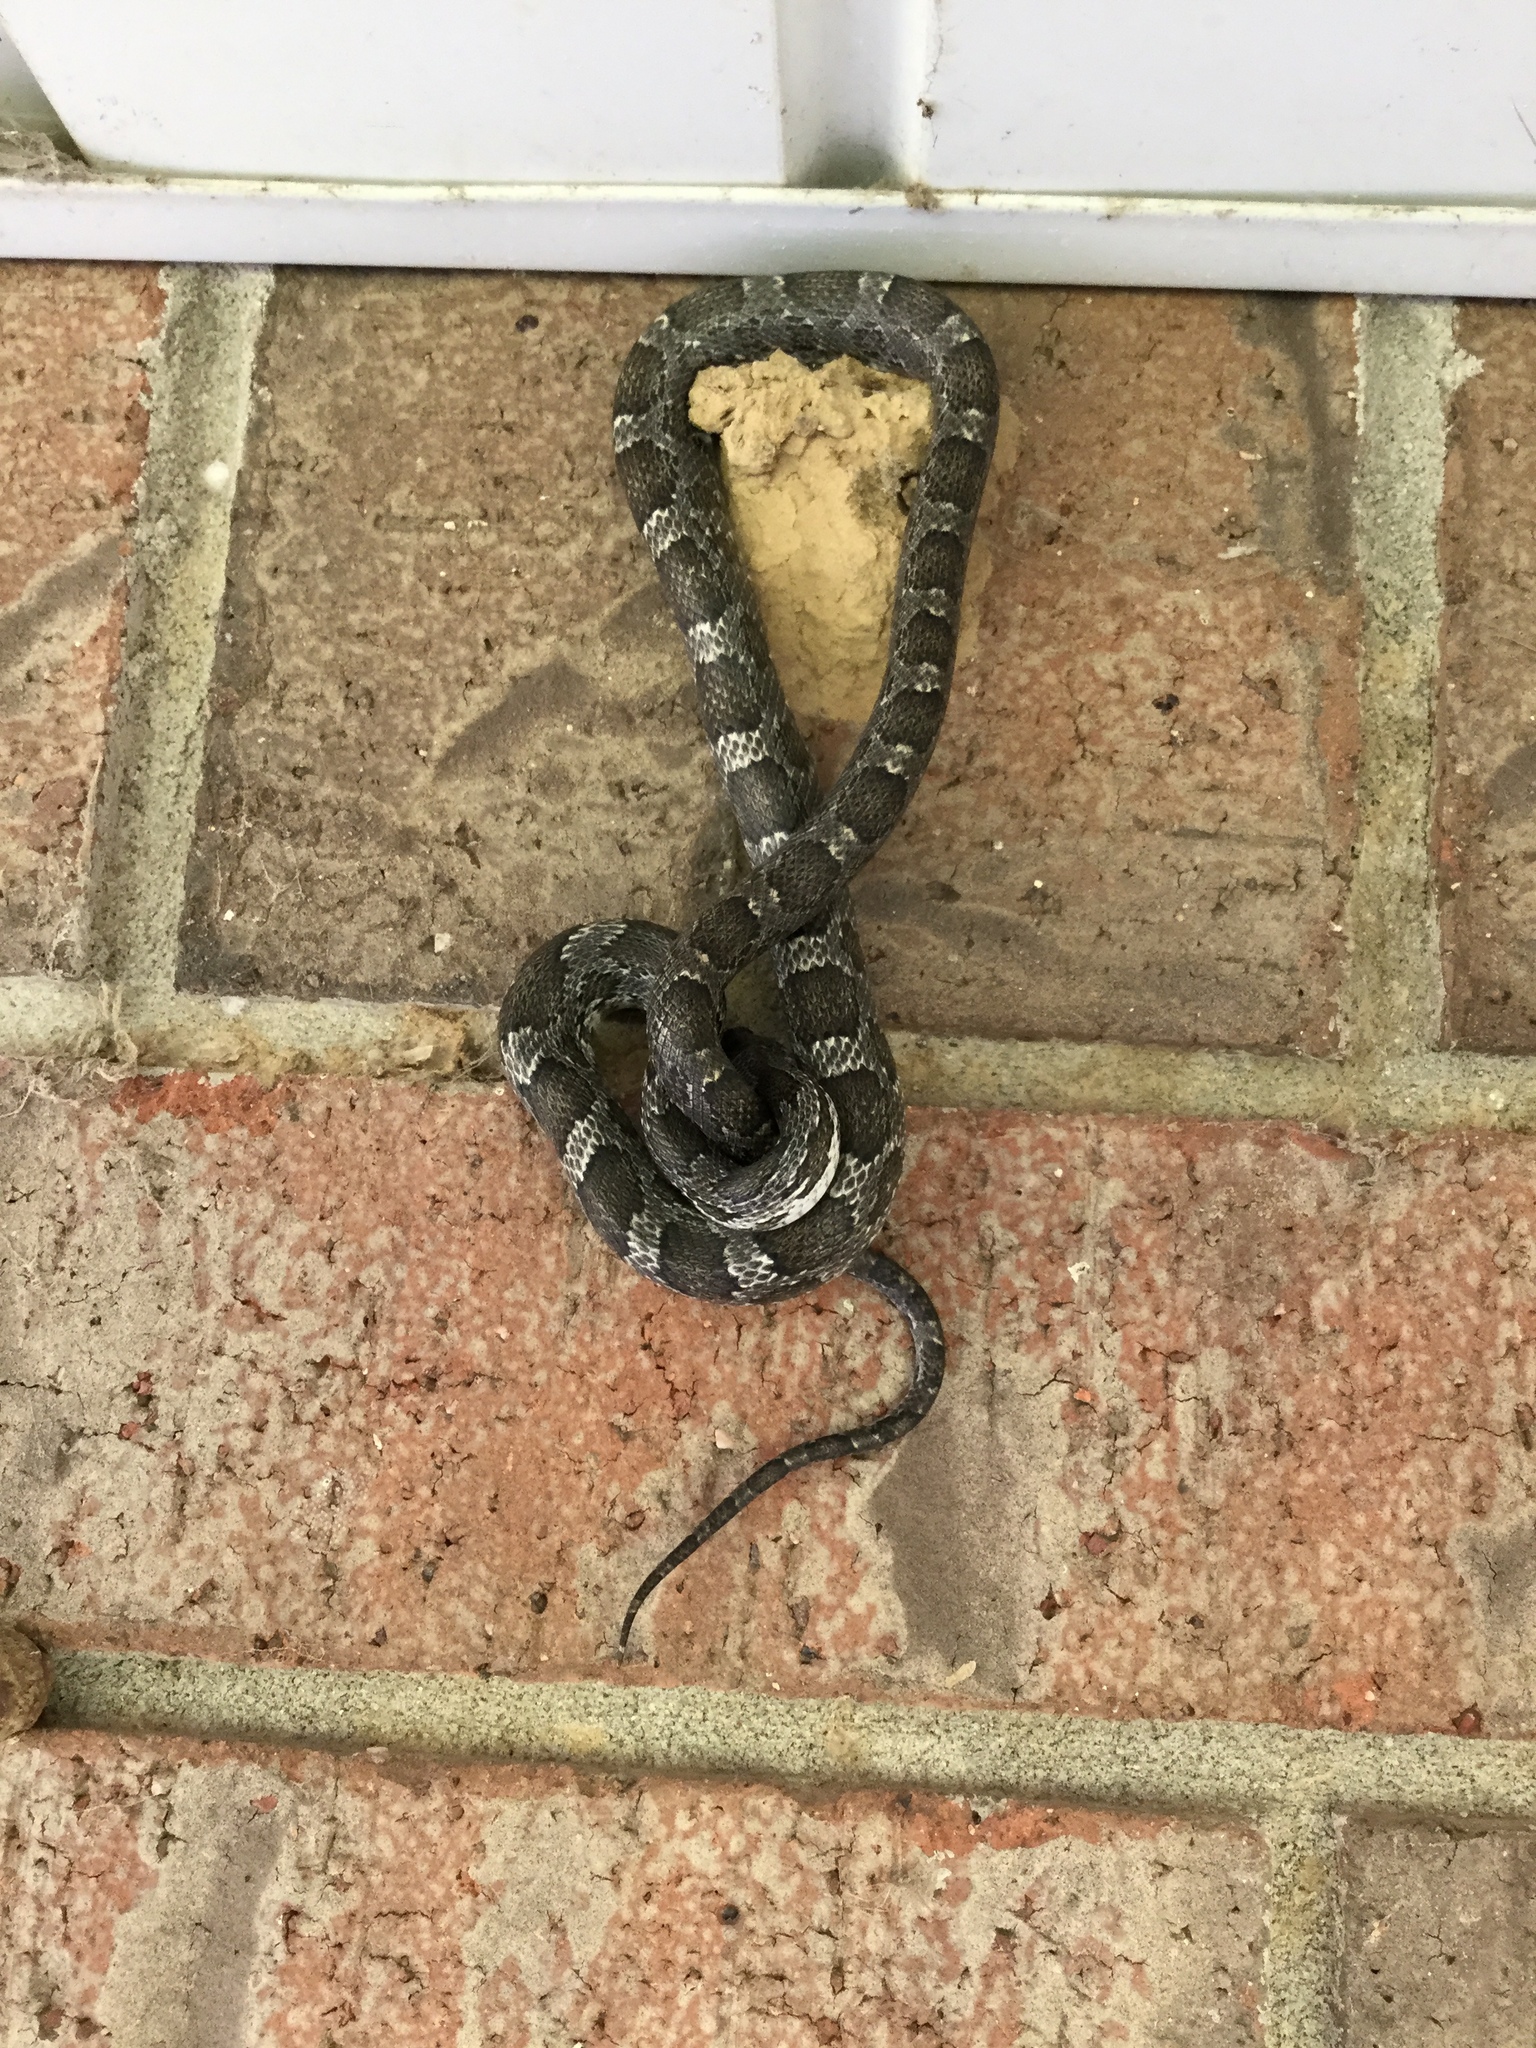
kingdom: Animalia
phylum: Chordata
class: Squamata
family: Colubridae
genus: Pantherophis
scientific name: Pantherophis obsoletus
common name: Black rat snake
